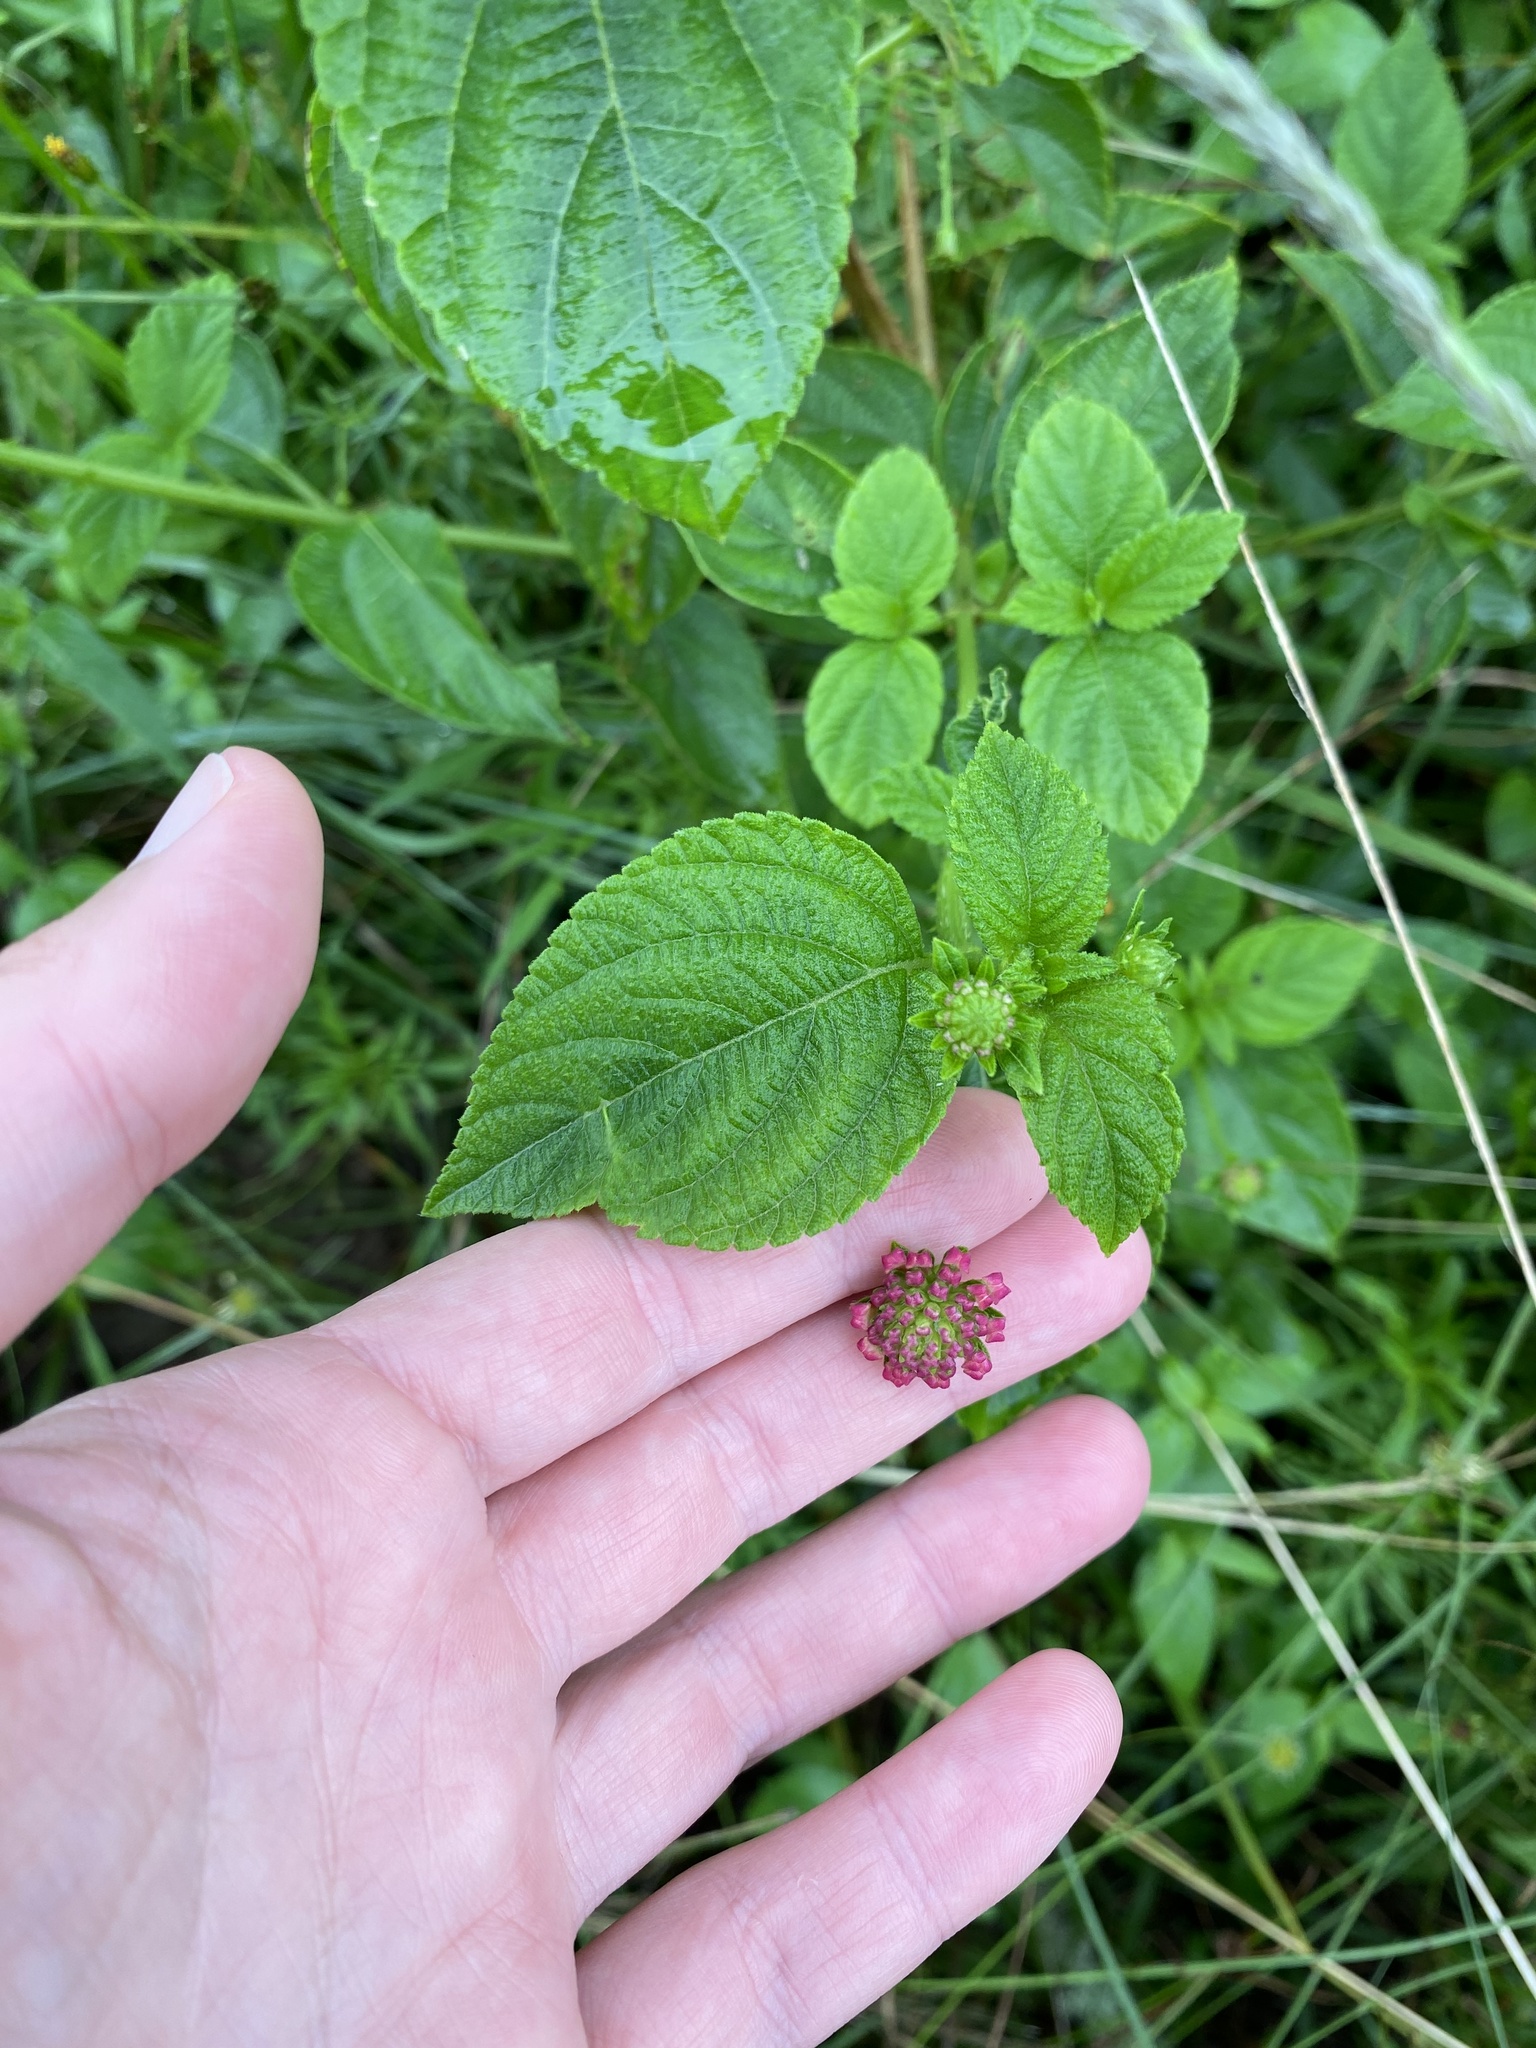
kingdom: Plantae
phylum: Tracheophyta
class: Magnoliopsida
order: Lamiales
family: Verbenaceae
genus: Lantana
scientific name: Lantana camara
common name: Lantana
